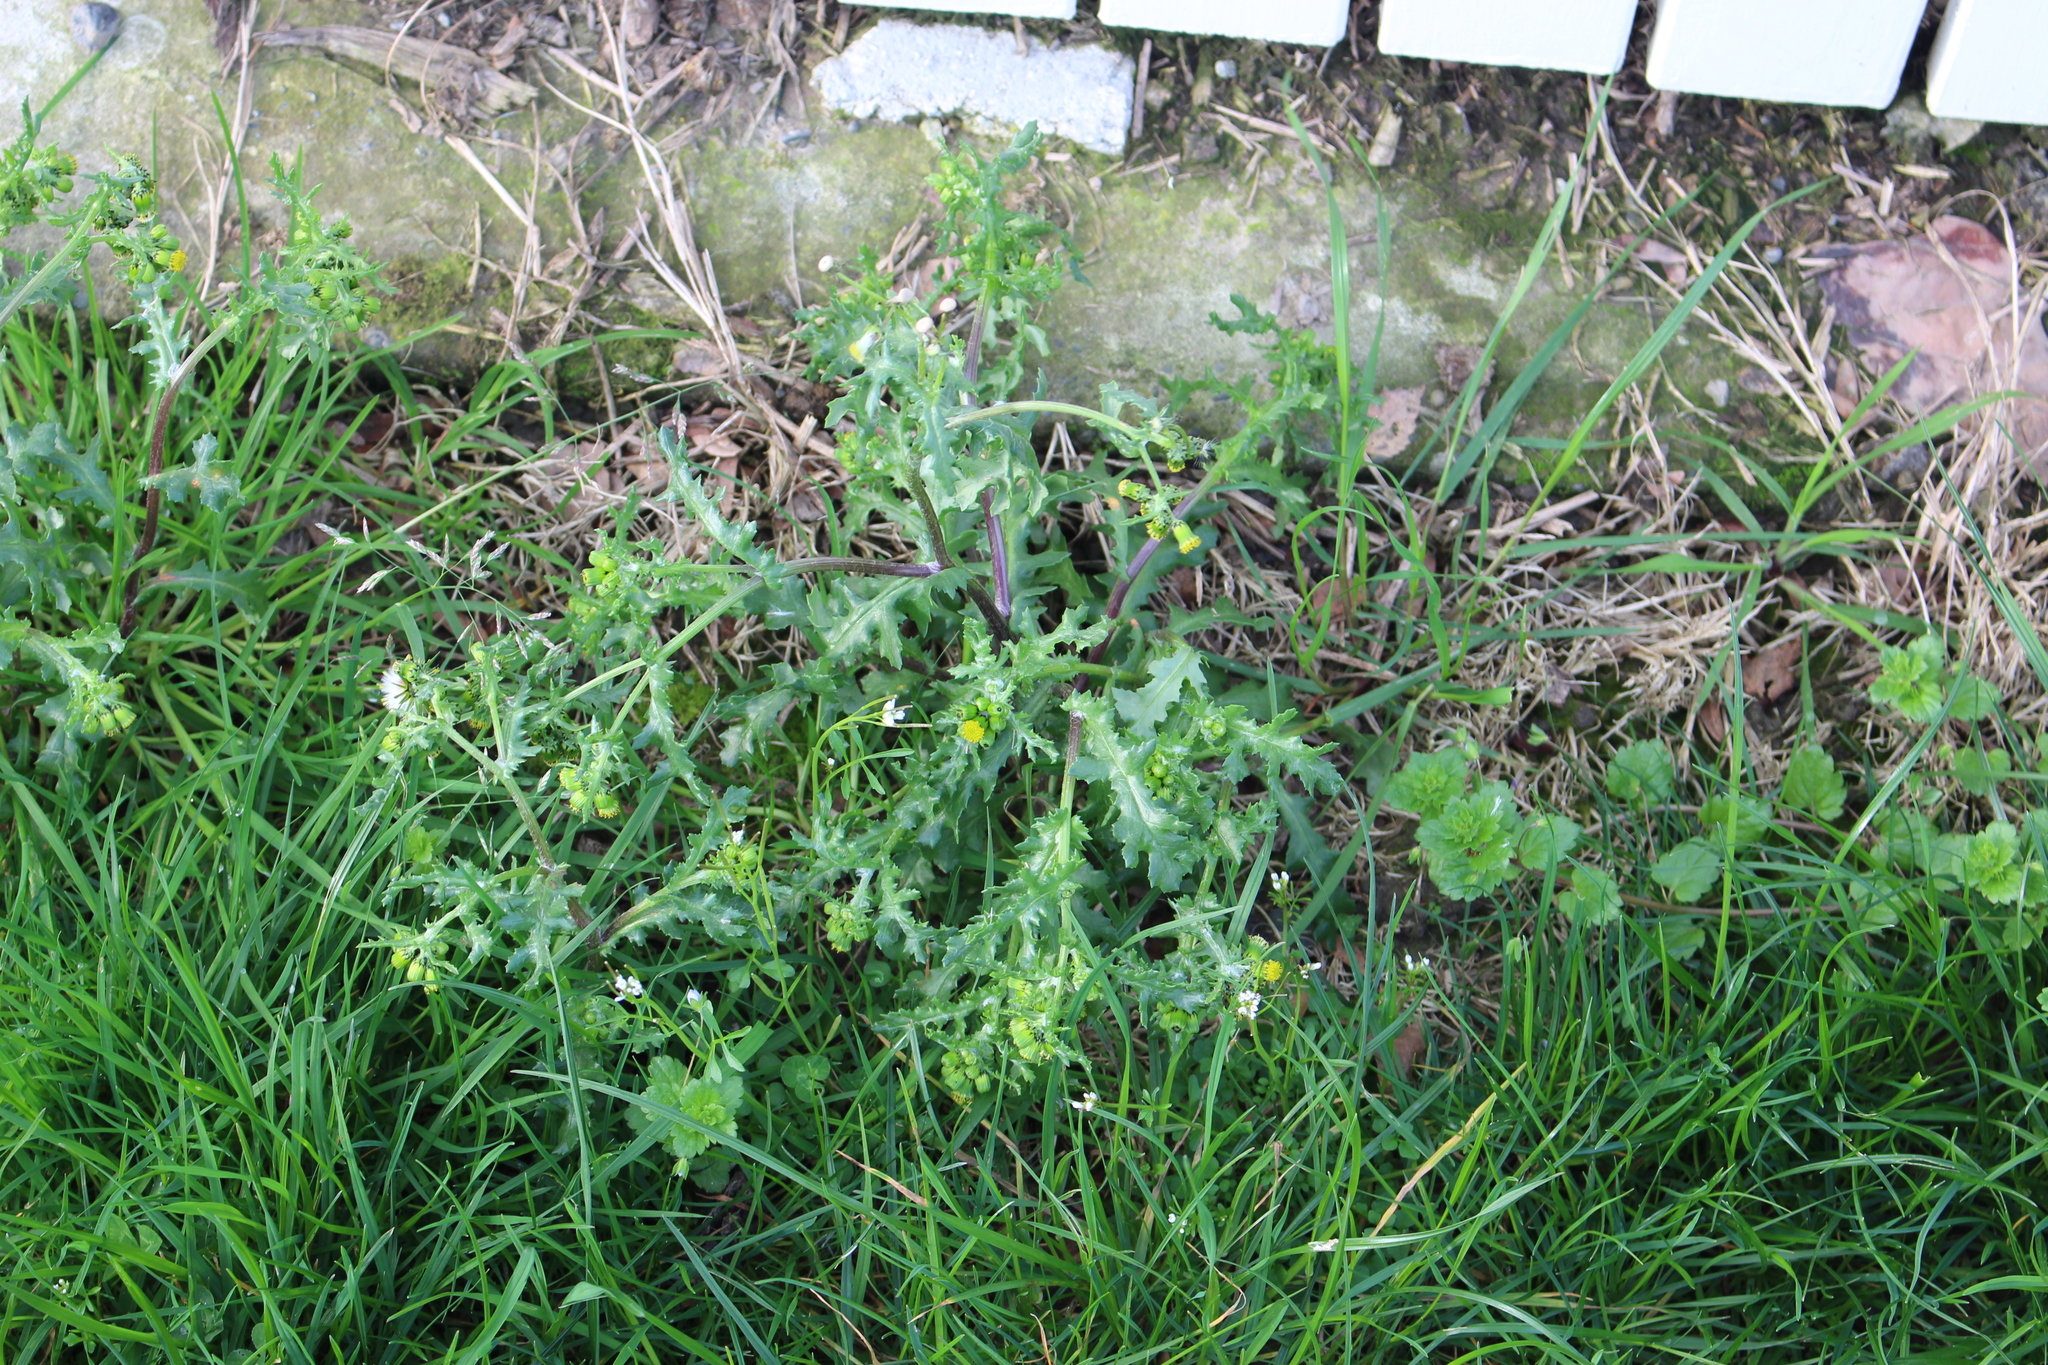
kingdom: Plantae
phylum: Tracheophyta
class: Magnoliopsida
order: Asterales
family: Asteraceae
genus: Senecio
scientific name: Senecio vulgaris
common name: Old-man-in-the-spring
